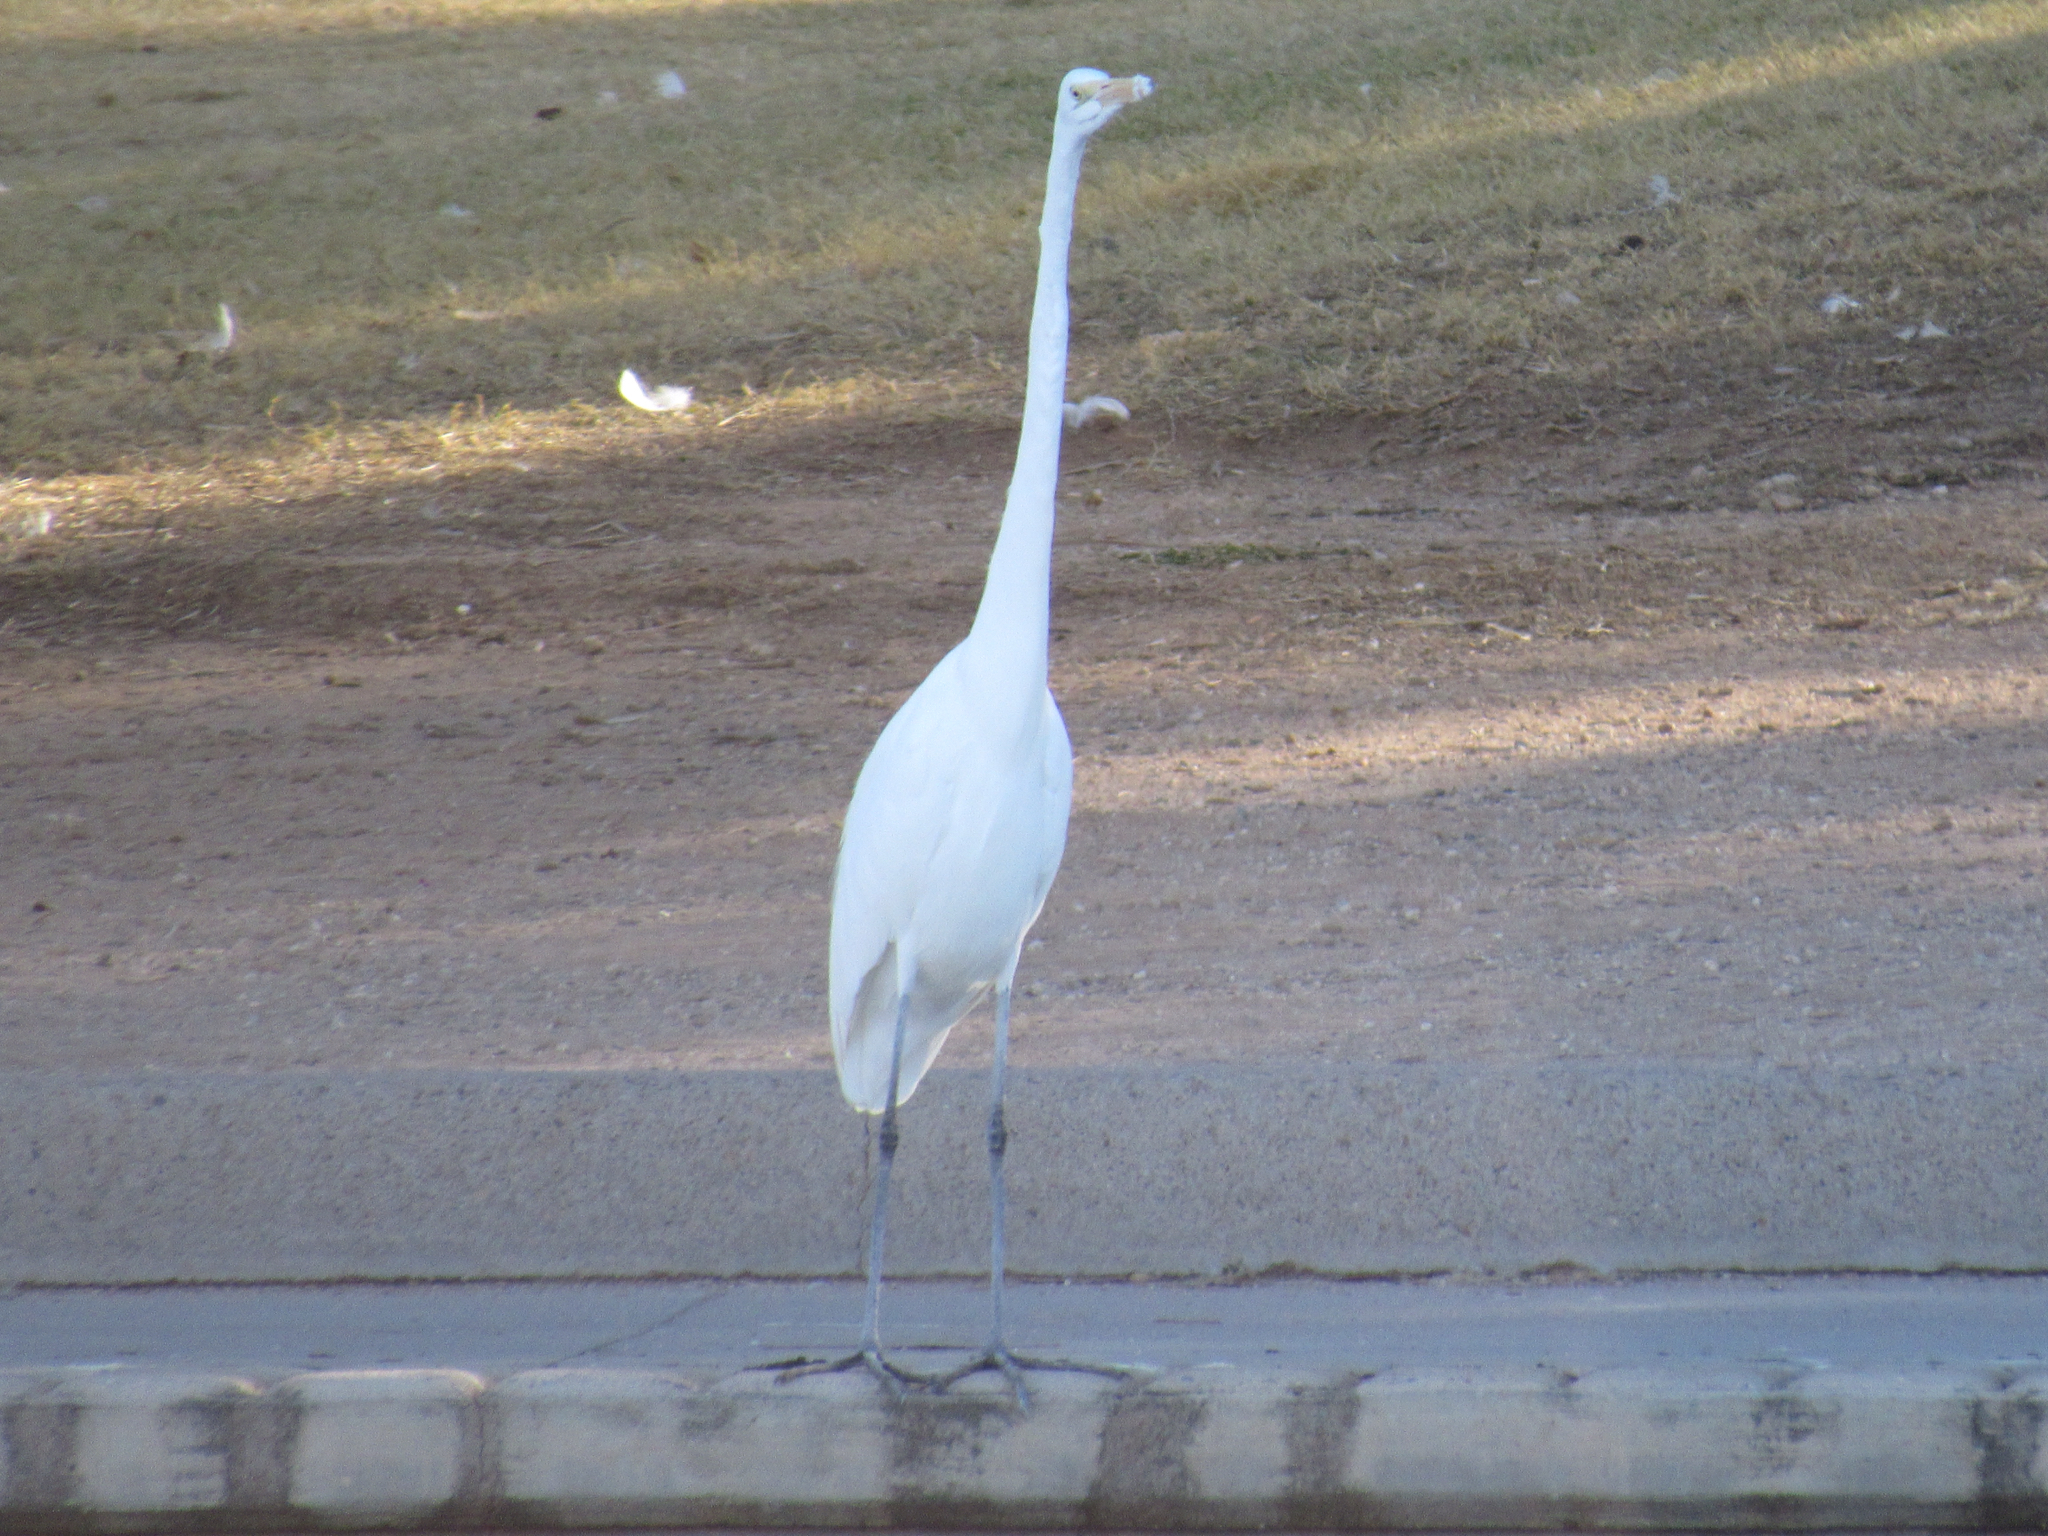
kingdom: Animalia
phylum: Chordata
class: Aves
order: Pelecaniformes
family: Ardeidae
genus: Ardea
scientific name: Ardea alba
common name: Great egret
